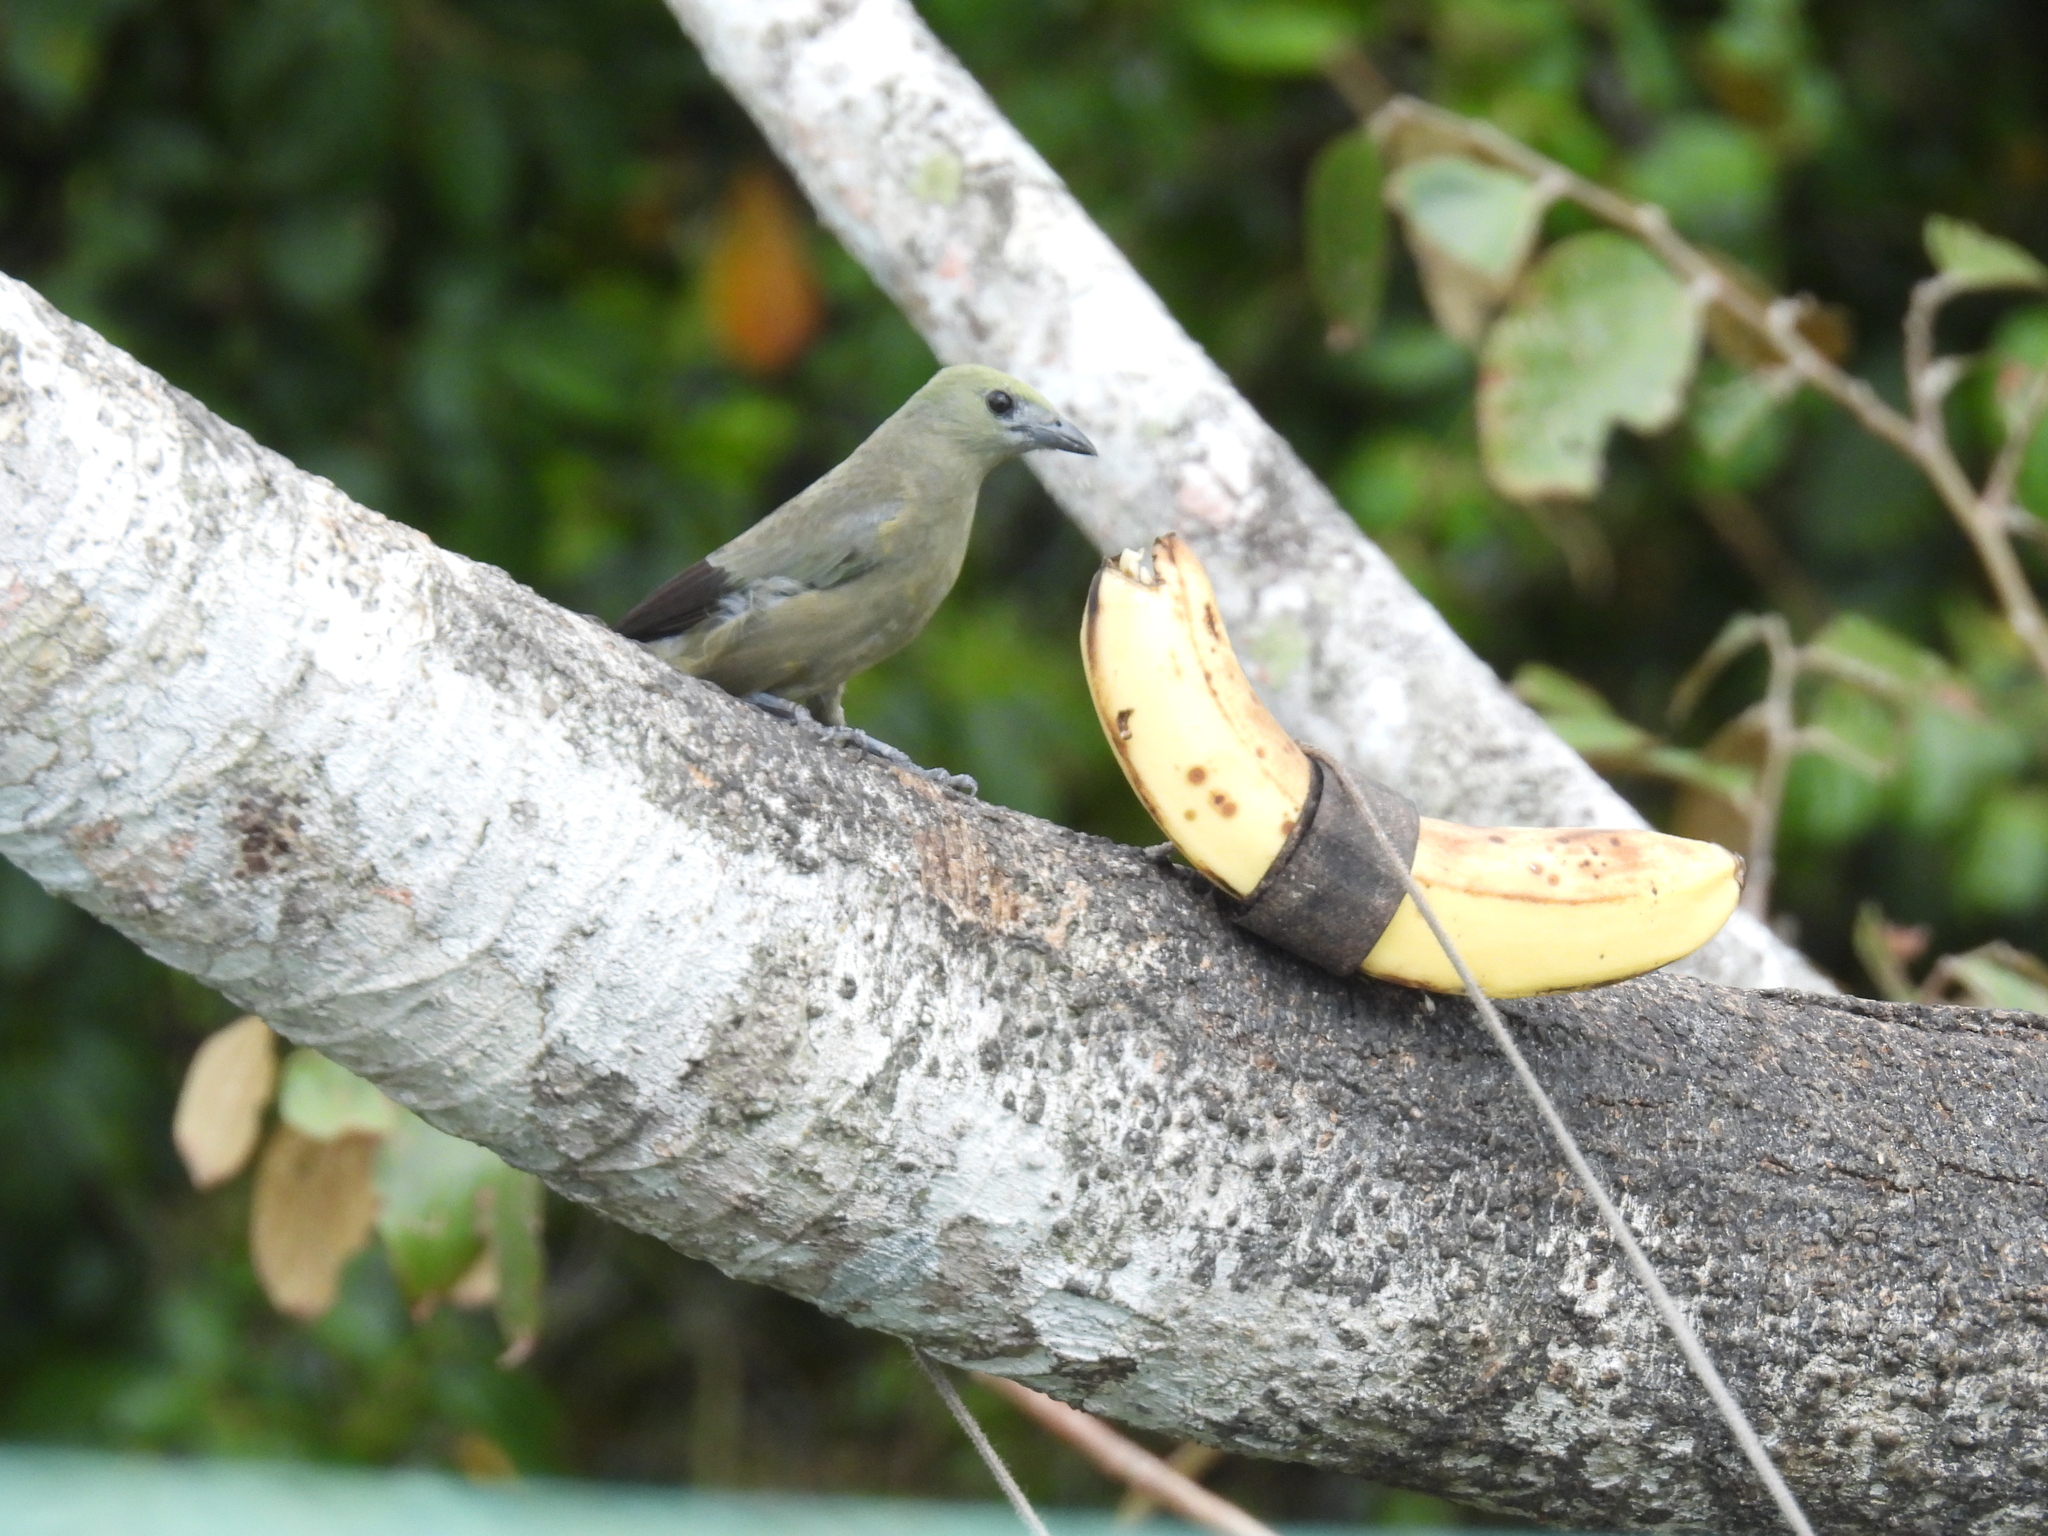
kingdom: Animalia
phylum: Chordata
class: Aves
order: Passeriformes
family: Thraupidae
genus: Thraupis
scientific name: Thraupis palmarum
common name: Palm tanager
